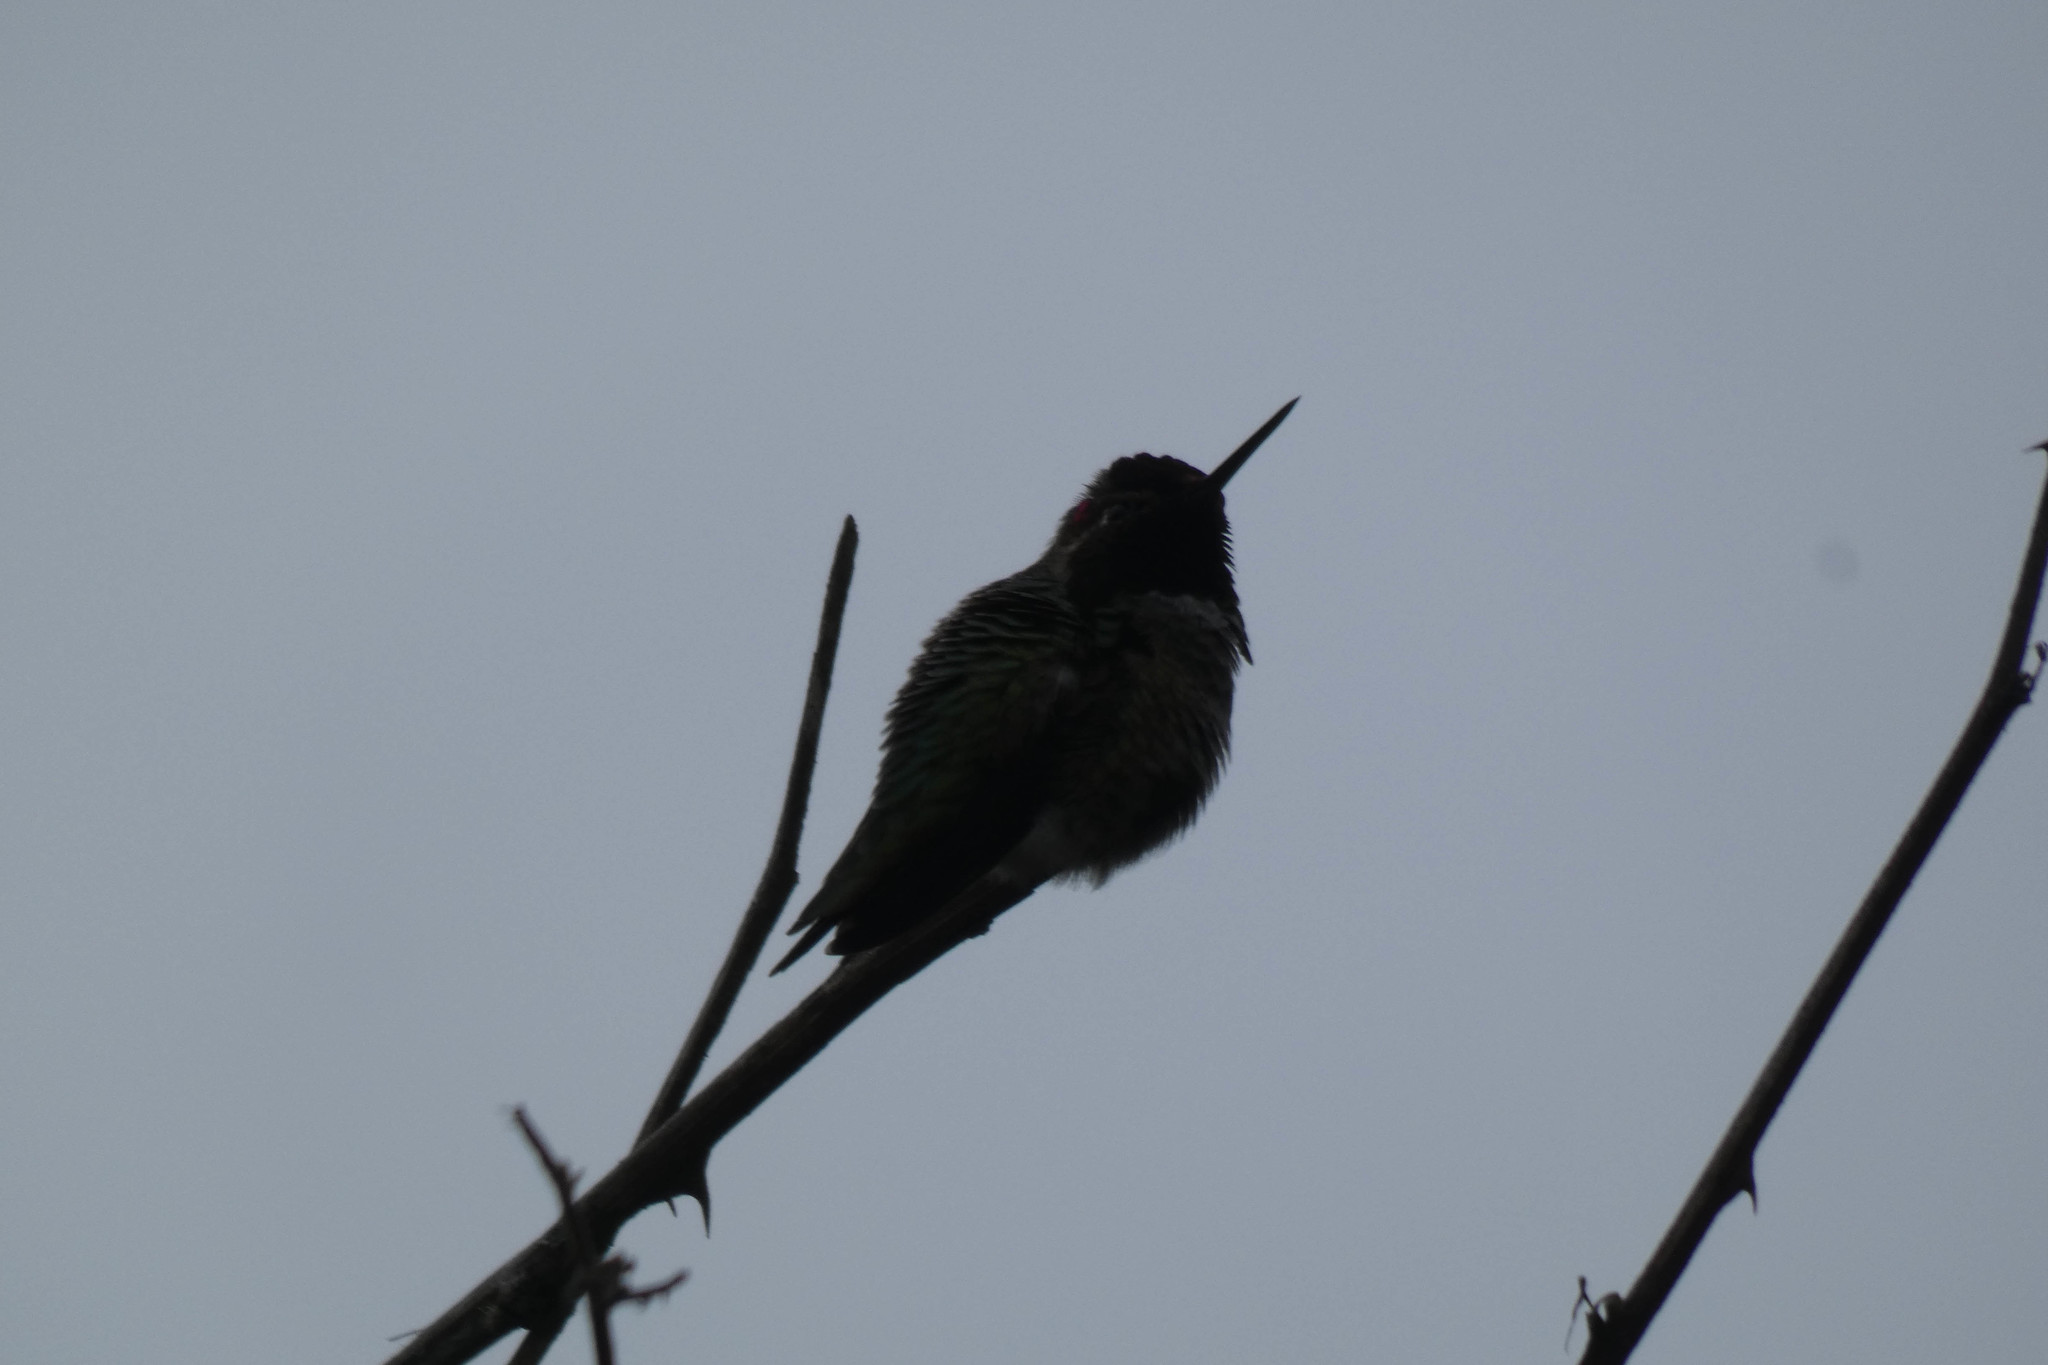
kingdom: Animalia
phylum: Chordata
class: Aves
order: Apodiformes
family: Trochilidae
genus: Calypte
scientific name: Calypte anna
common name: Anna's hummingbird
